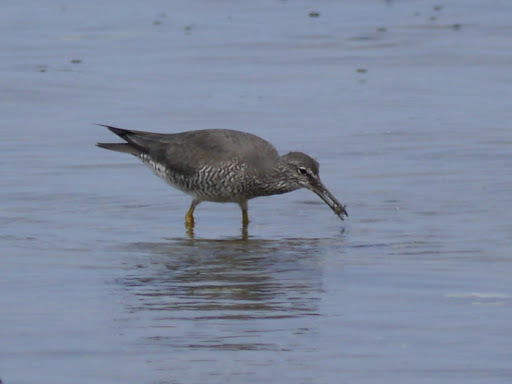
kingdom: Animalia
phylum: Chordata
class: Aves
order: Charadriiformes
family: Scolopacidae
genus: Tringa
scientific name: Tringa incana
